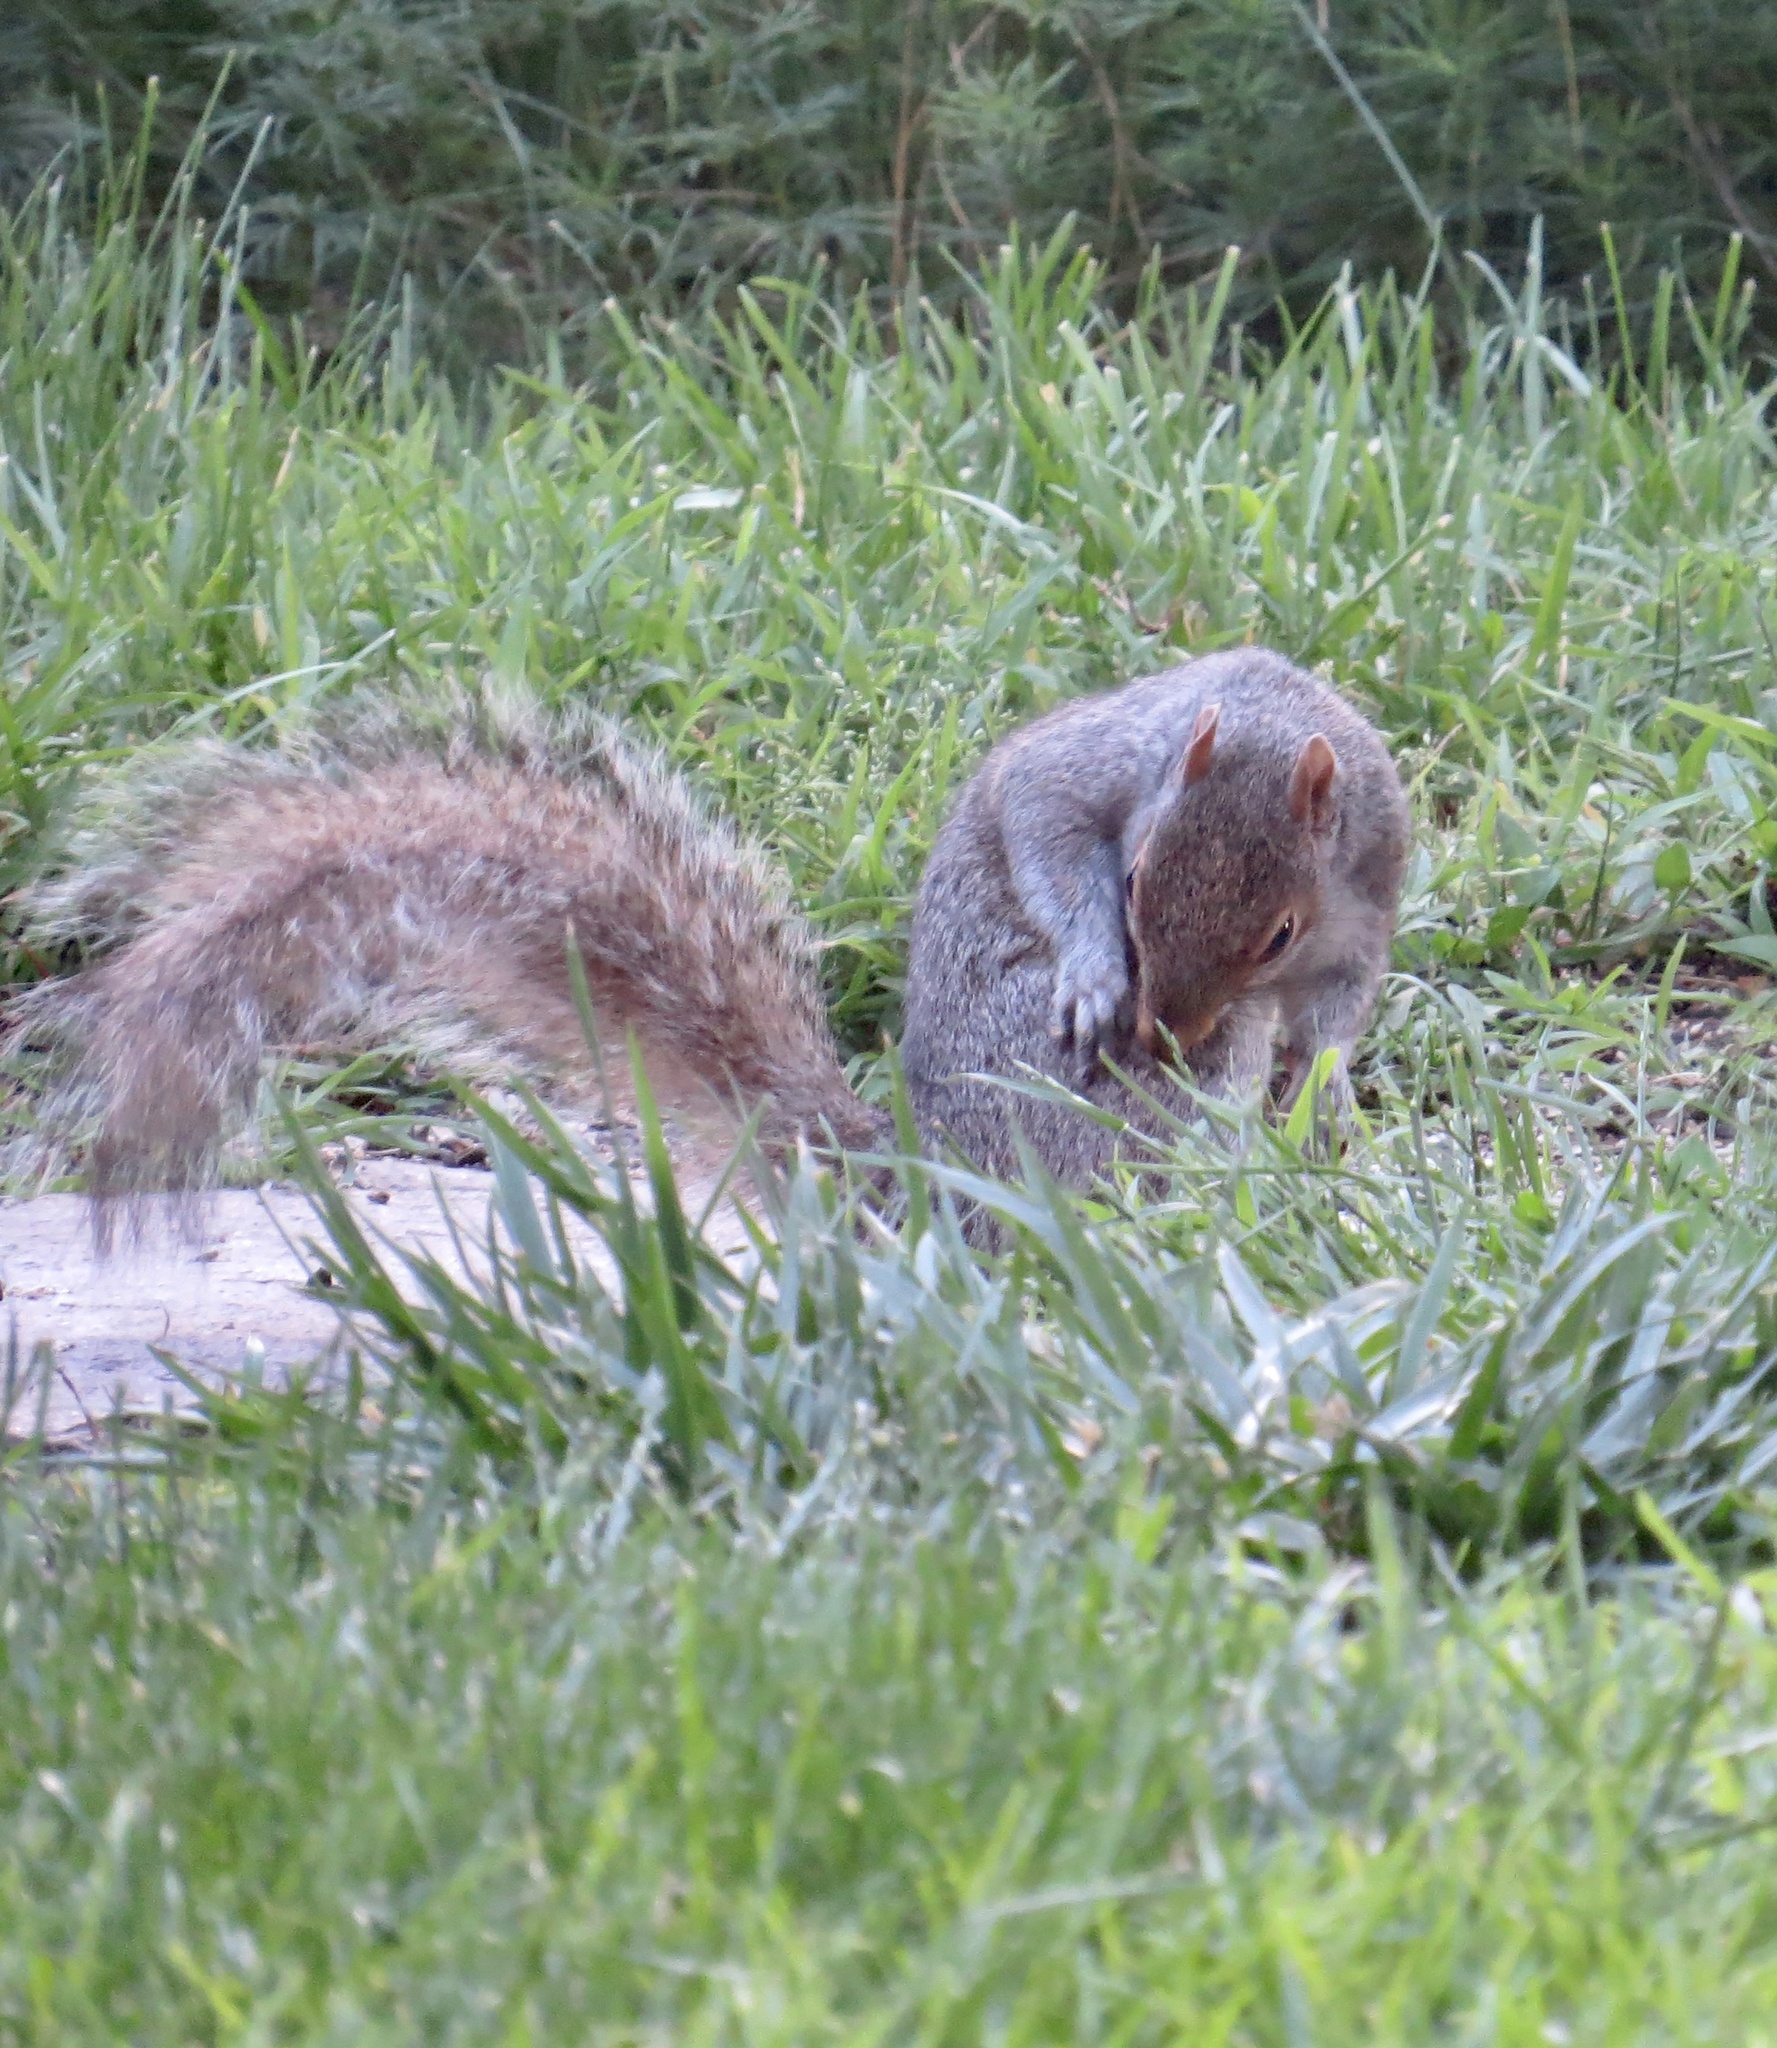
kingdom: Animalia
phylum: Chordata
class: Mammalia
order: Rodentia
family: Sciuridae
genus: Sciurus
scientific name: Sciurus carolinensis
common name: Eastern gray squirrel
